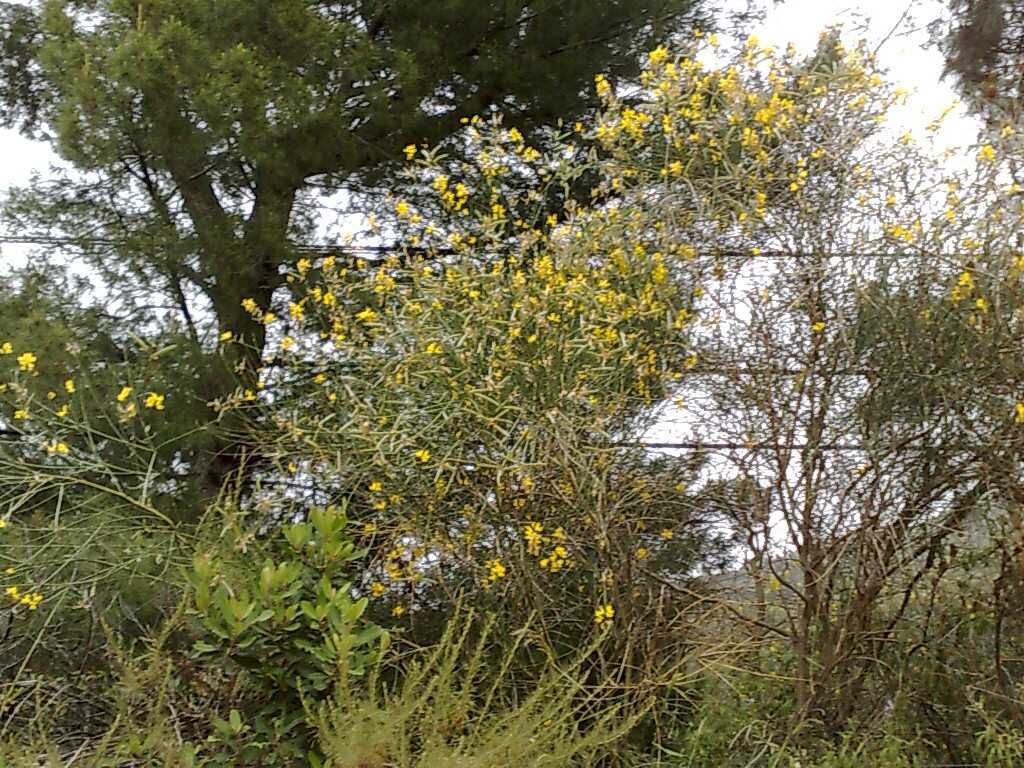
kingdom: Plantae
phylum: Tracheophyta
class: Magnoliopsida
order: Asterales
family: Asteraceae
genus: Artemisia
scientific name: Artemisia californica
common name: California sagebrush
